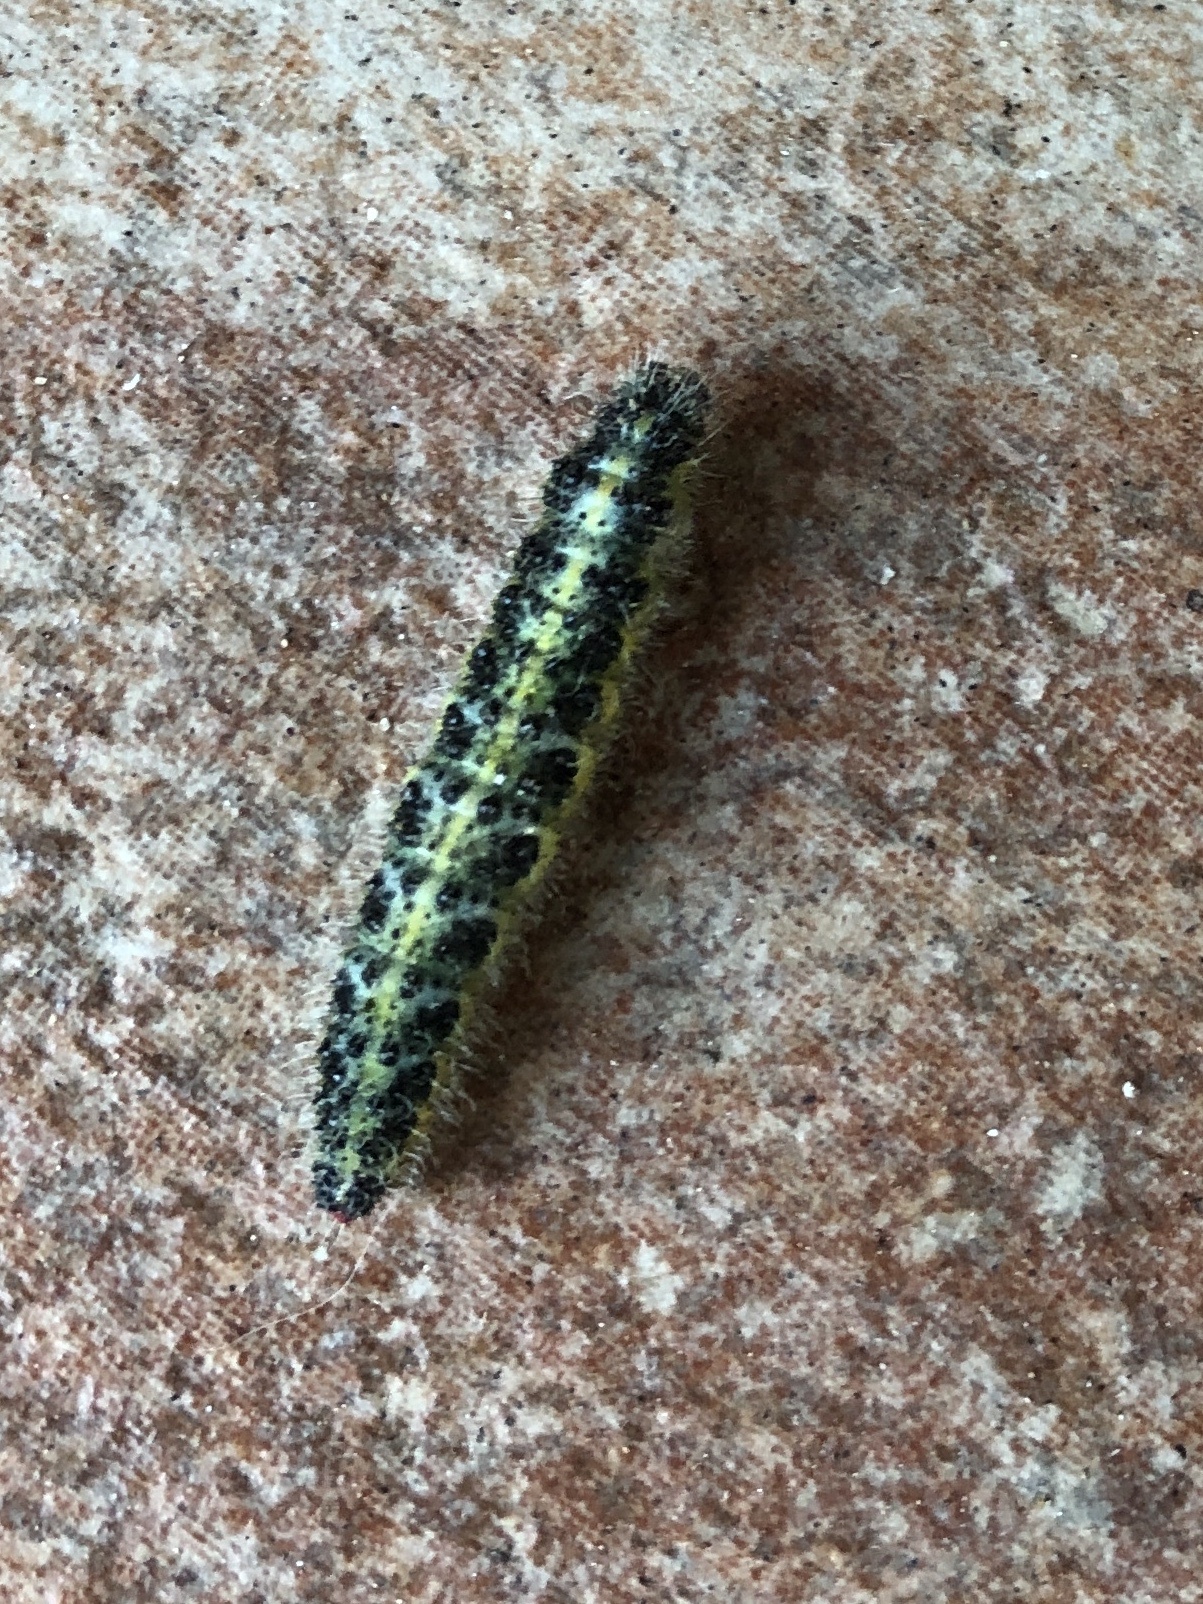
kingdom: Animalia
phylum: Arthropoda
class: Insecta
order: Lepidoptera
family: Pieridae
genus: Pieris
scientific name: Pieris brassicae
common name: Large white
